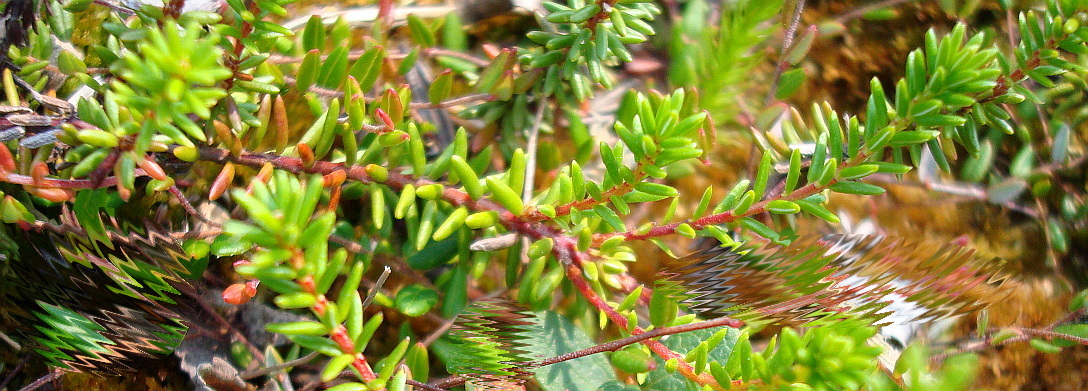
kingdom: Plantae
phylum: Tracheophyta
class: Magnoliopsida
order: Ericales
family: Ericaceae
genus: Empetrum
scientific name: Empetrum nigrum
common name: Black crowberry
